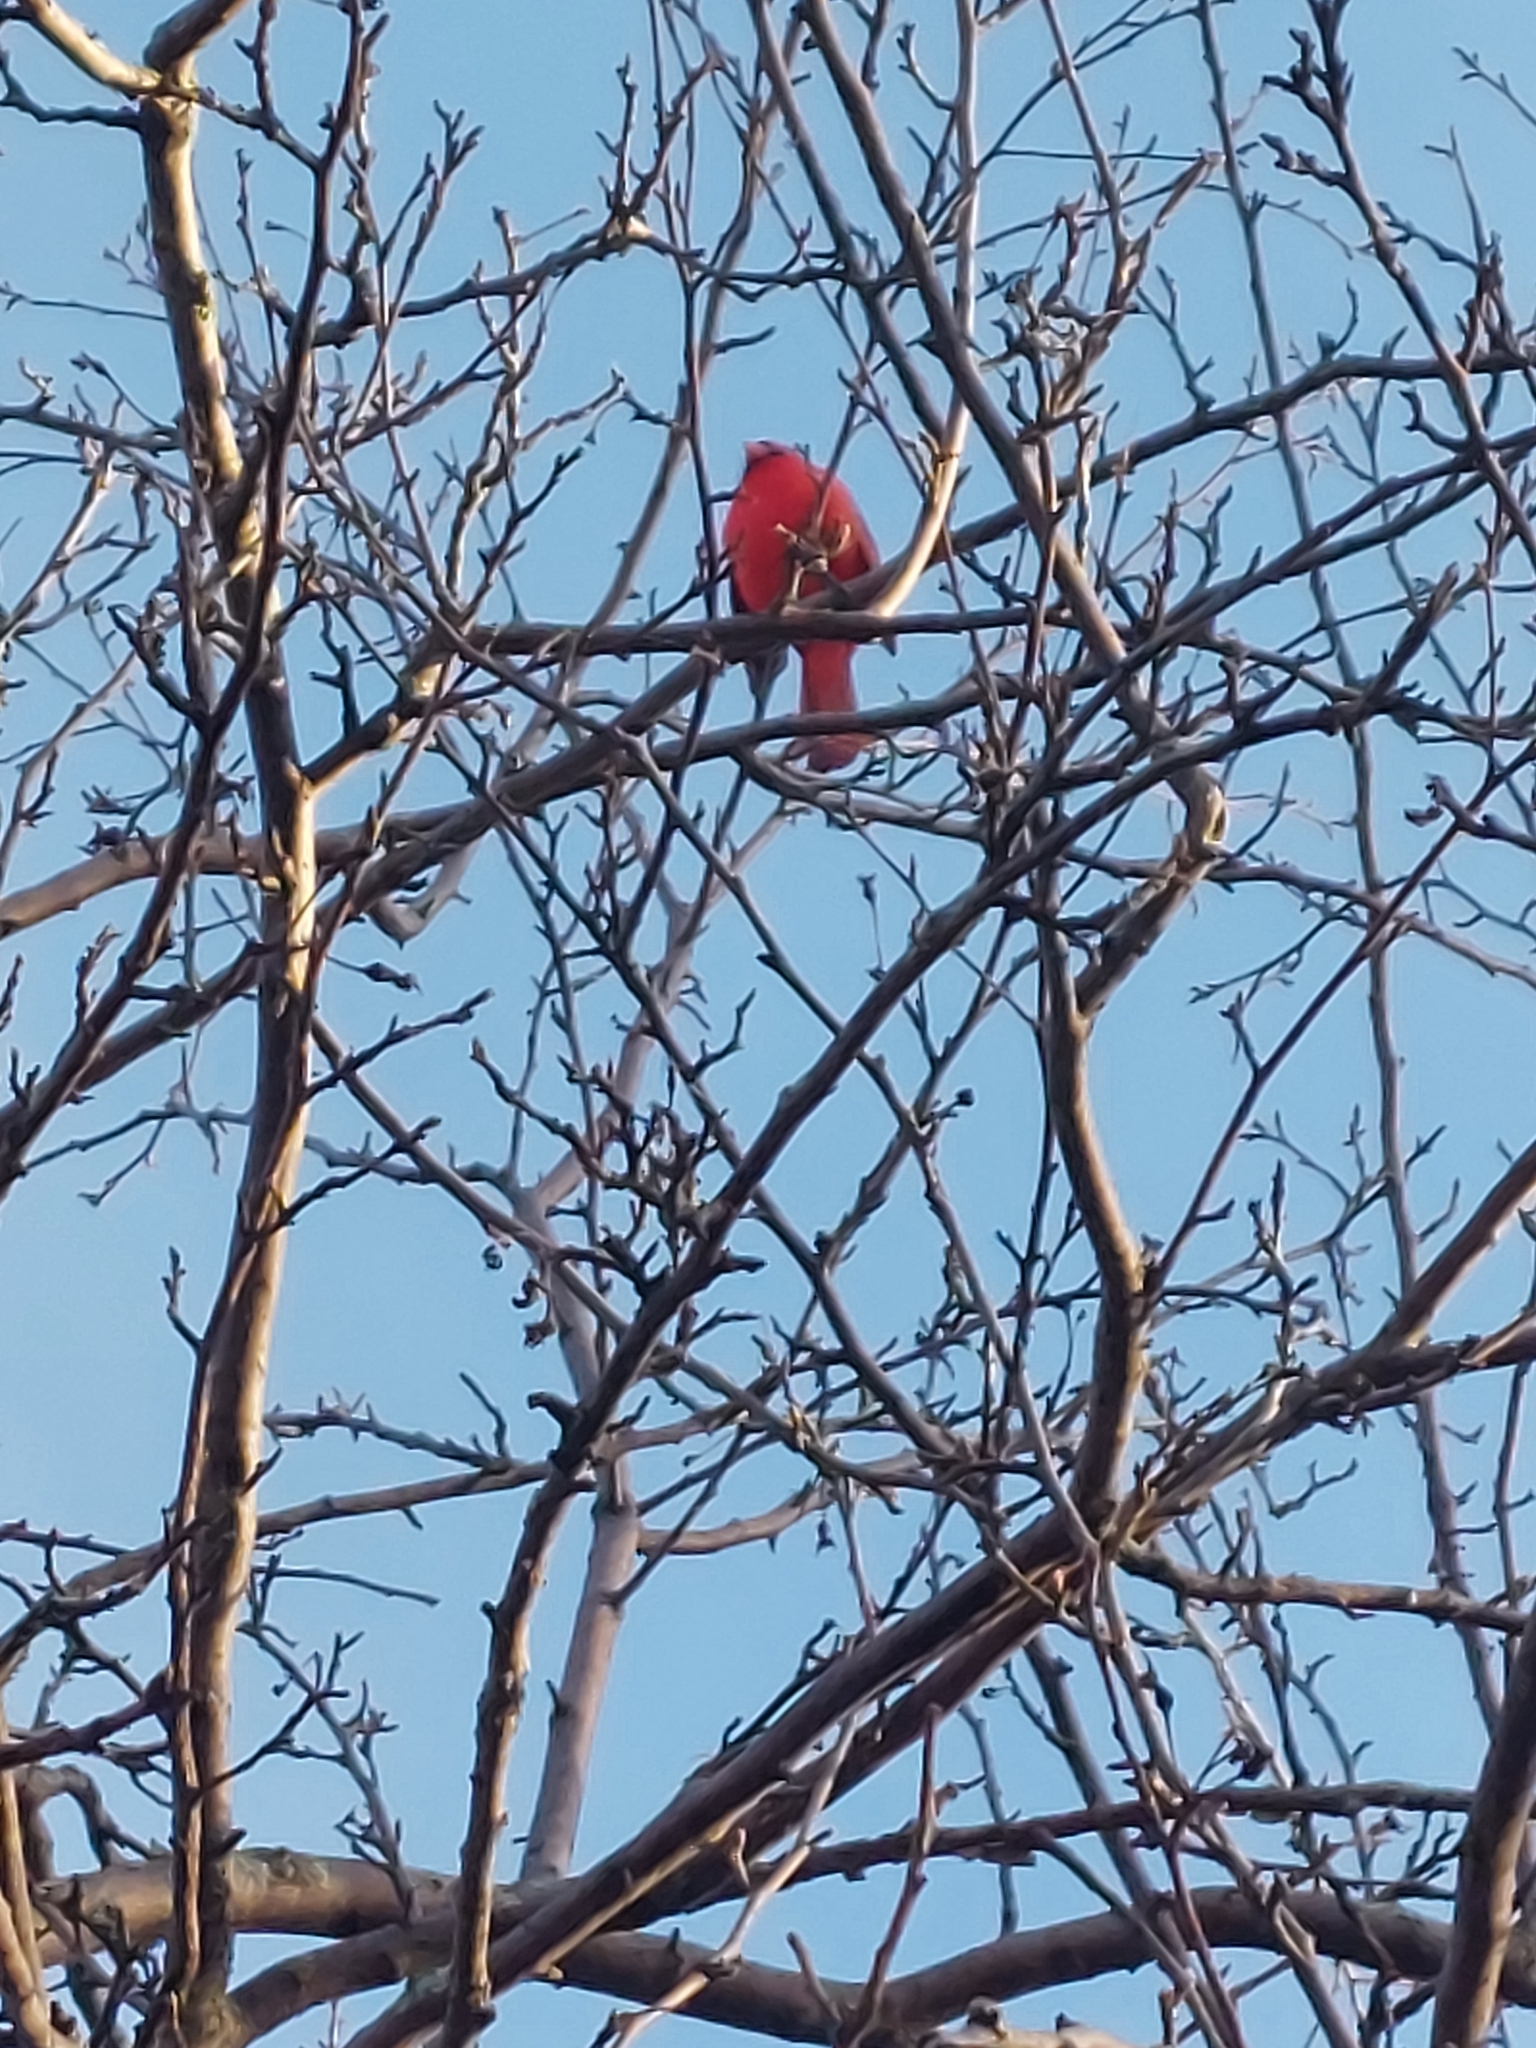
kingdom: Animalia
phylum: Chordata
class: Aves
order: Passeriformes
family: Cardinalidae
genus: Cardinalis
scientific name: Cardinalis cardinalis
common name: Northern cardinal
